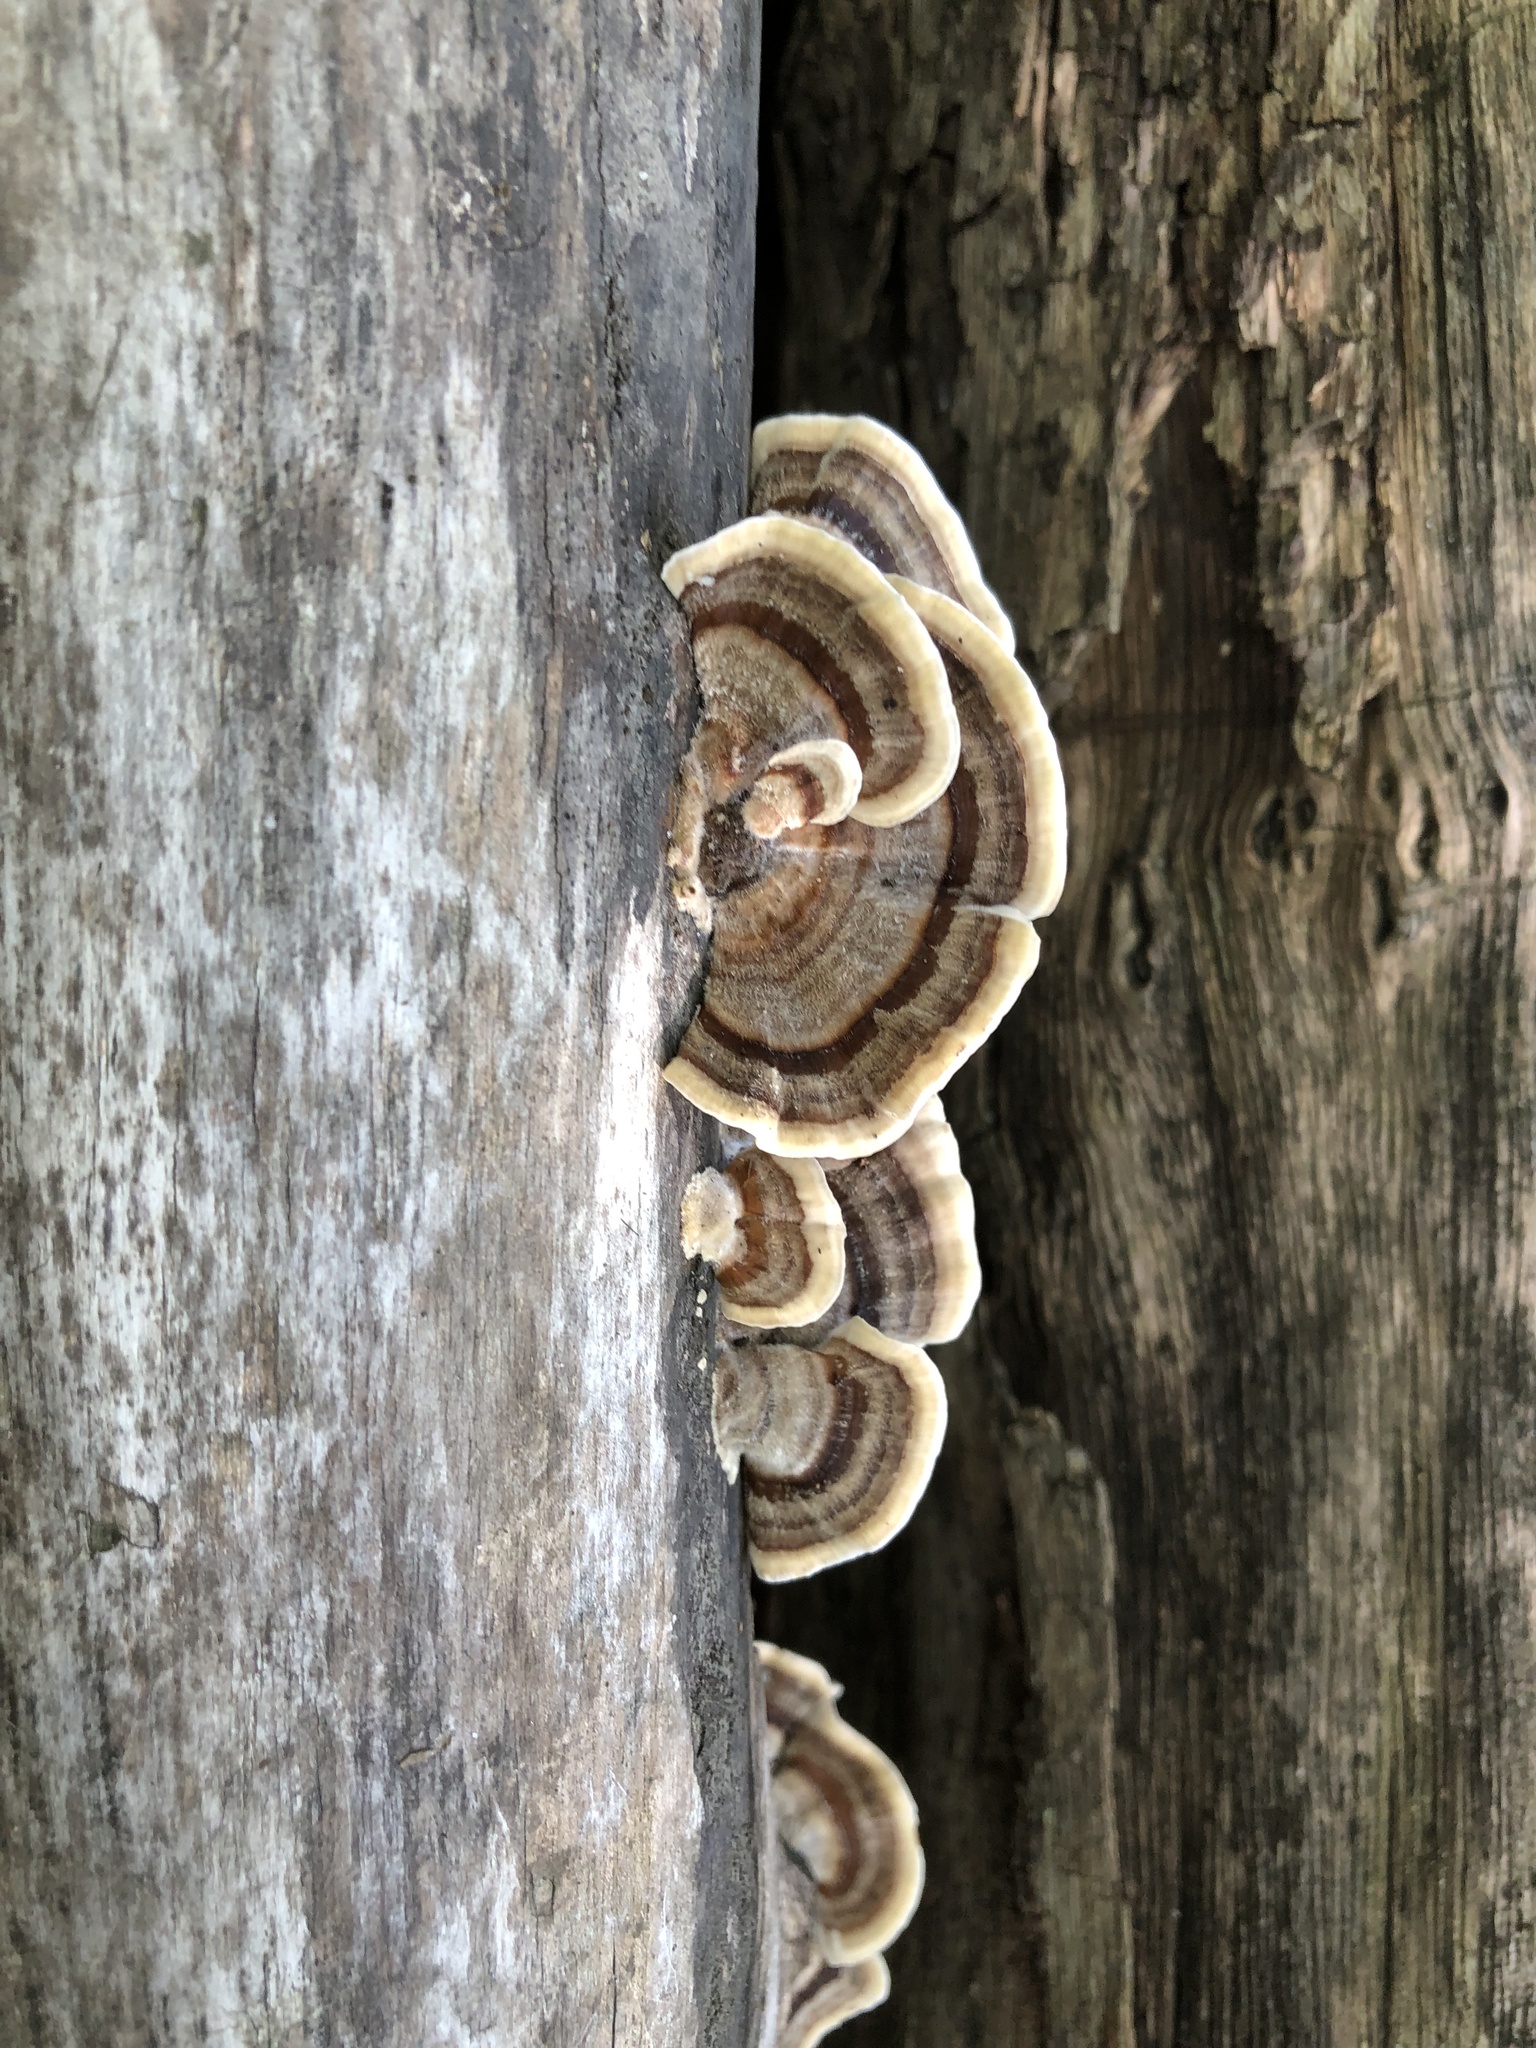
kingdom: Fungi
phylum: Basidiomycota
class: Agaricomycetes
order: Polyporales
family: Polyporaceae
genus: Trametes
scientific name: Trametes versicolor
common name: Turkeytail
